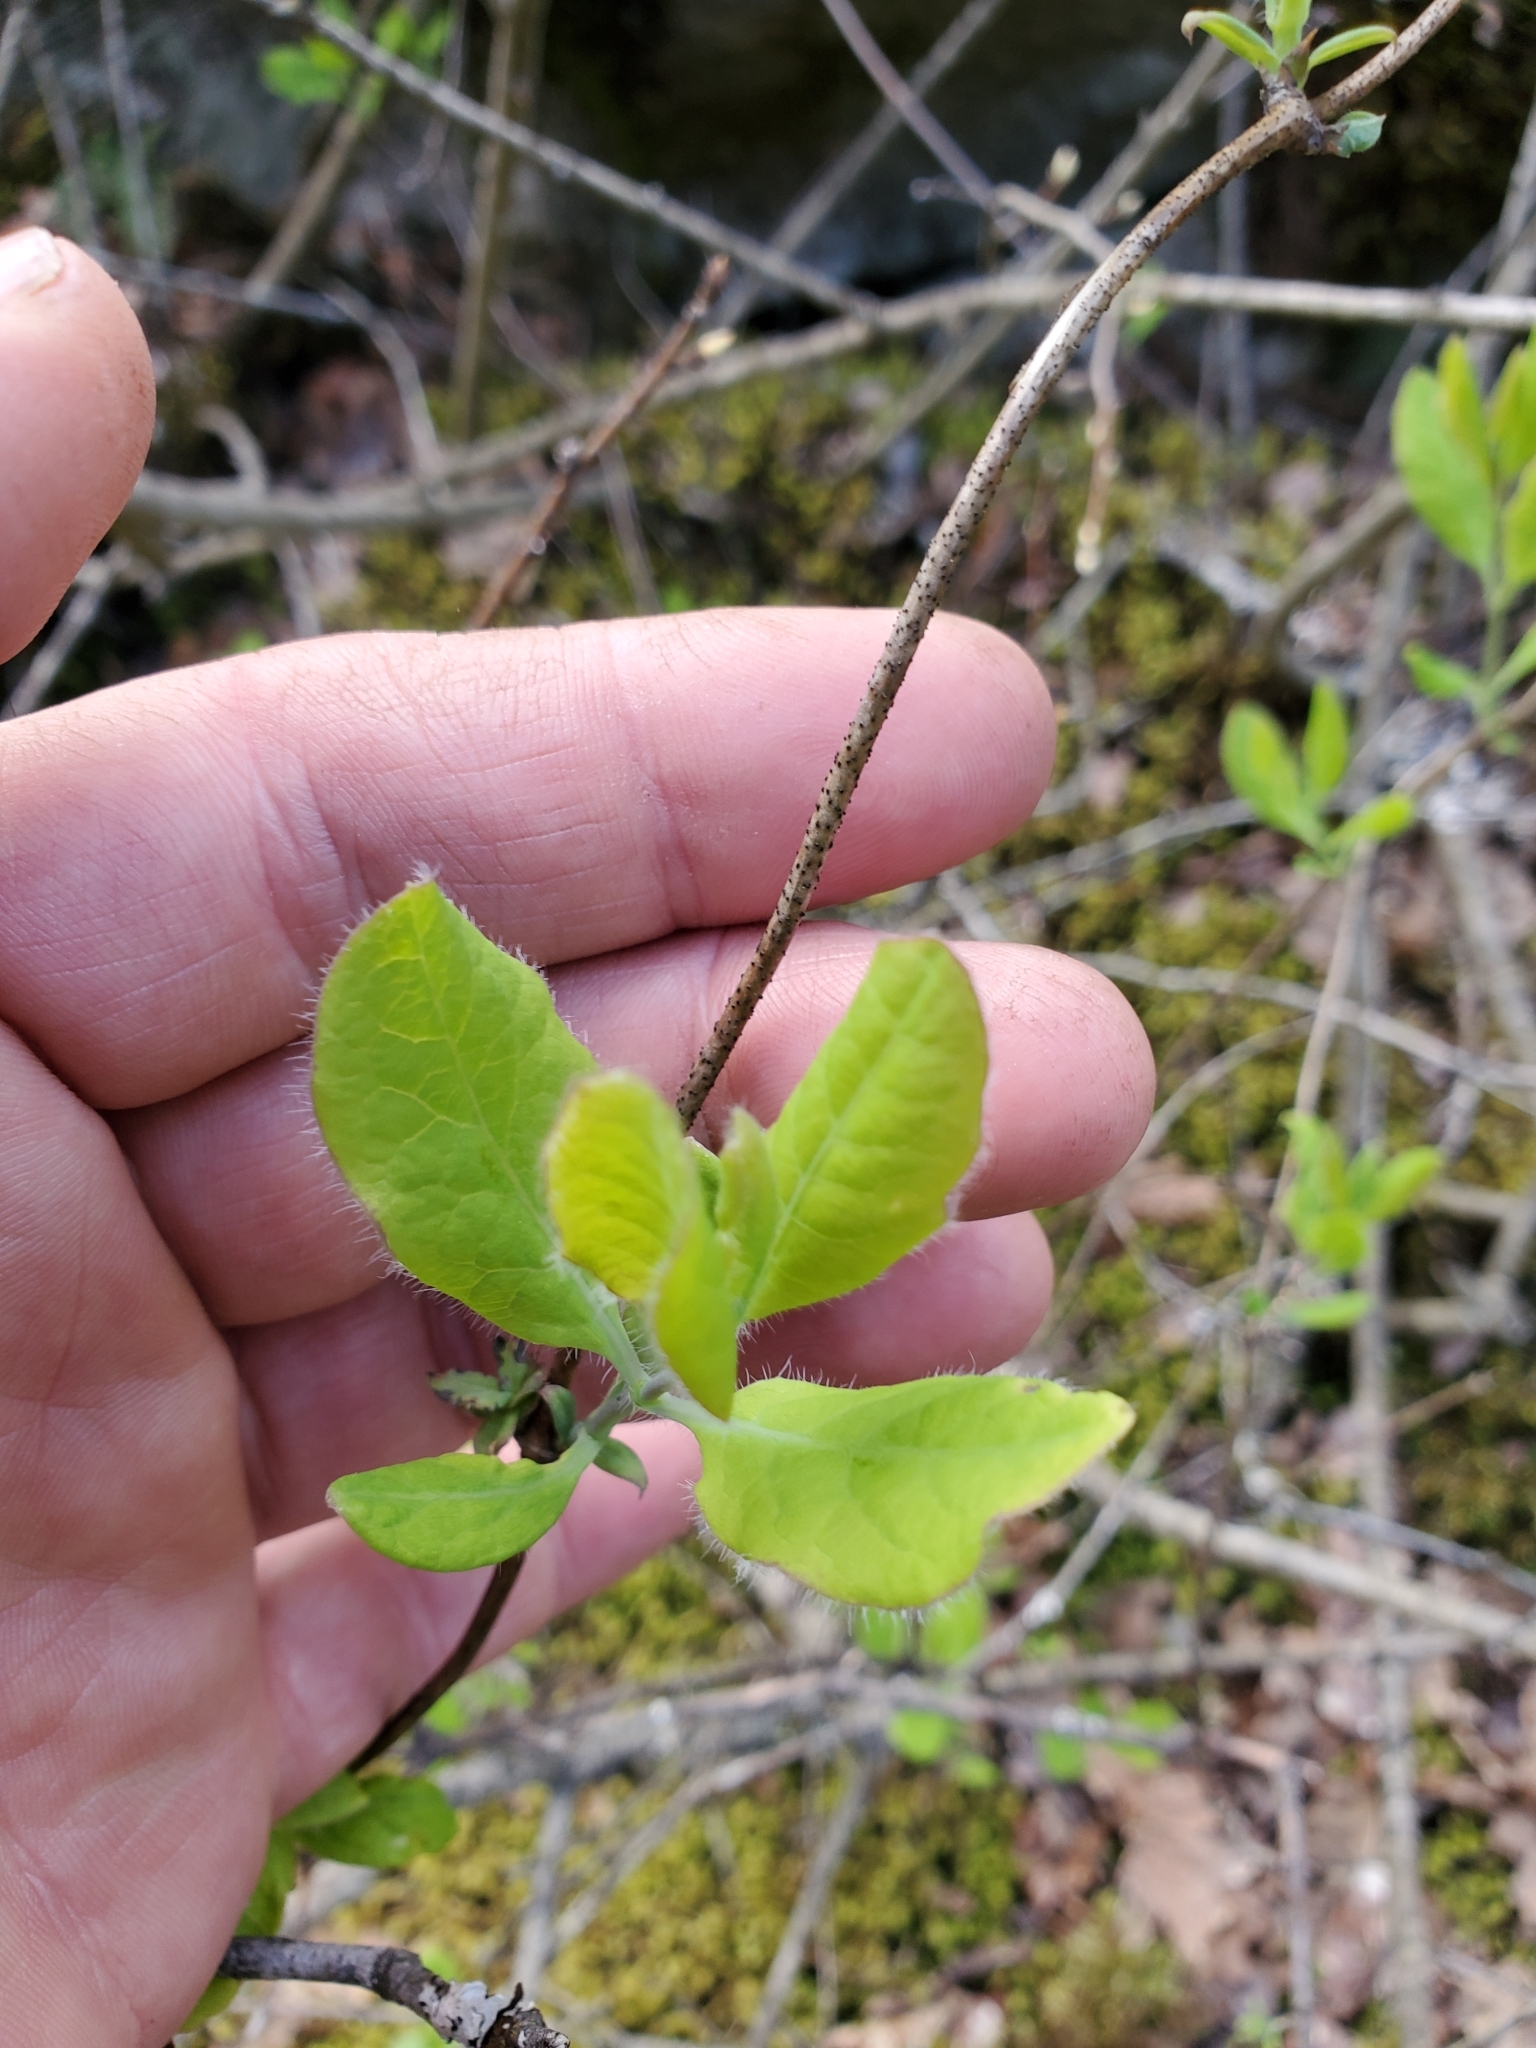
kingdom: Plantae
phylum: Tracheophyta
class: Magnoliopsida
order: Dipsacales
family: Caprifoliaceae
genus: Lonicera
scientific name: Lonicera ciliosa
